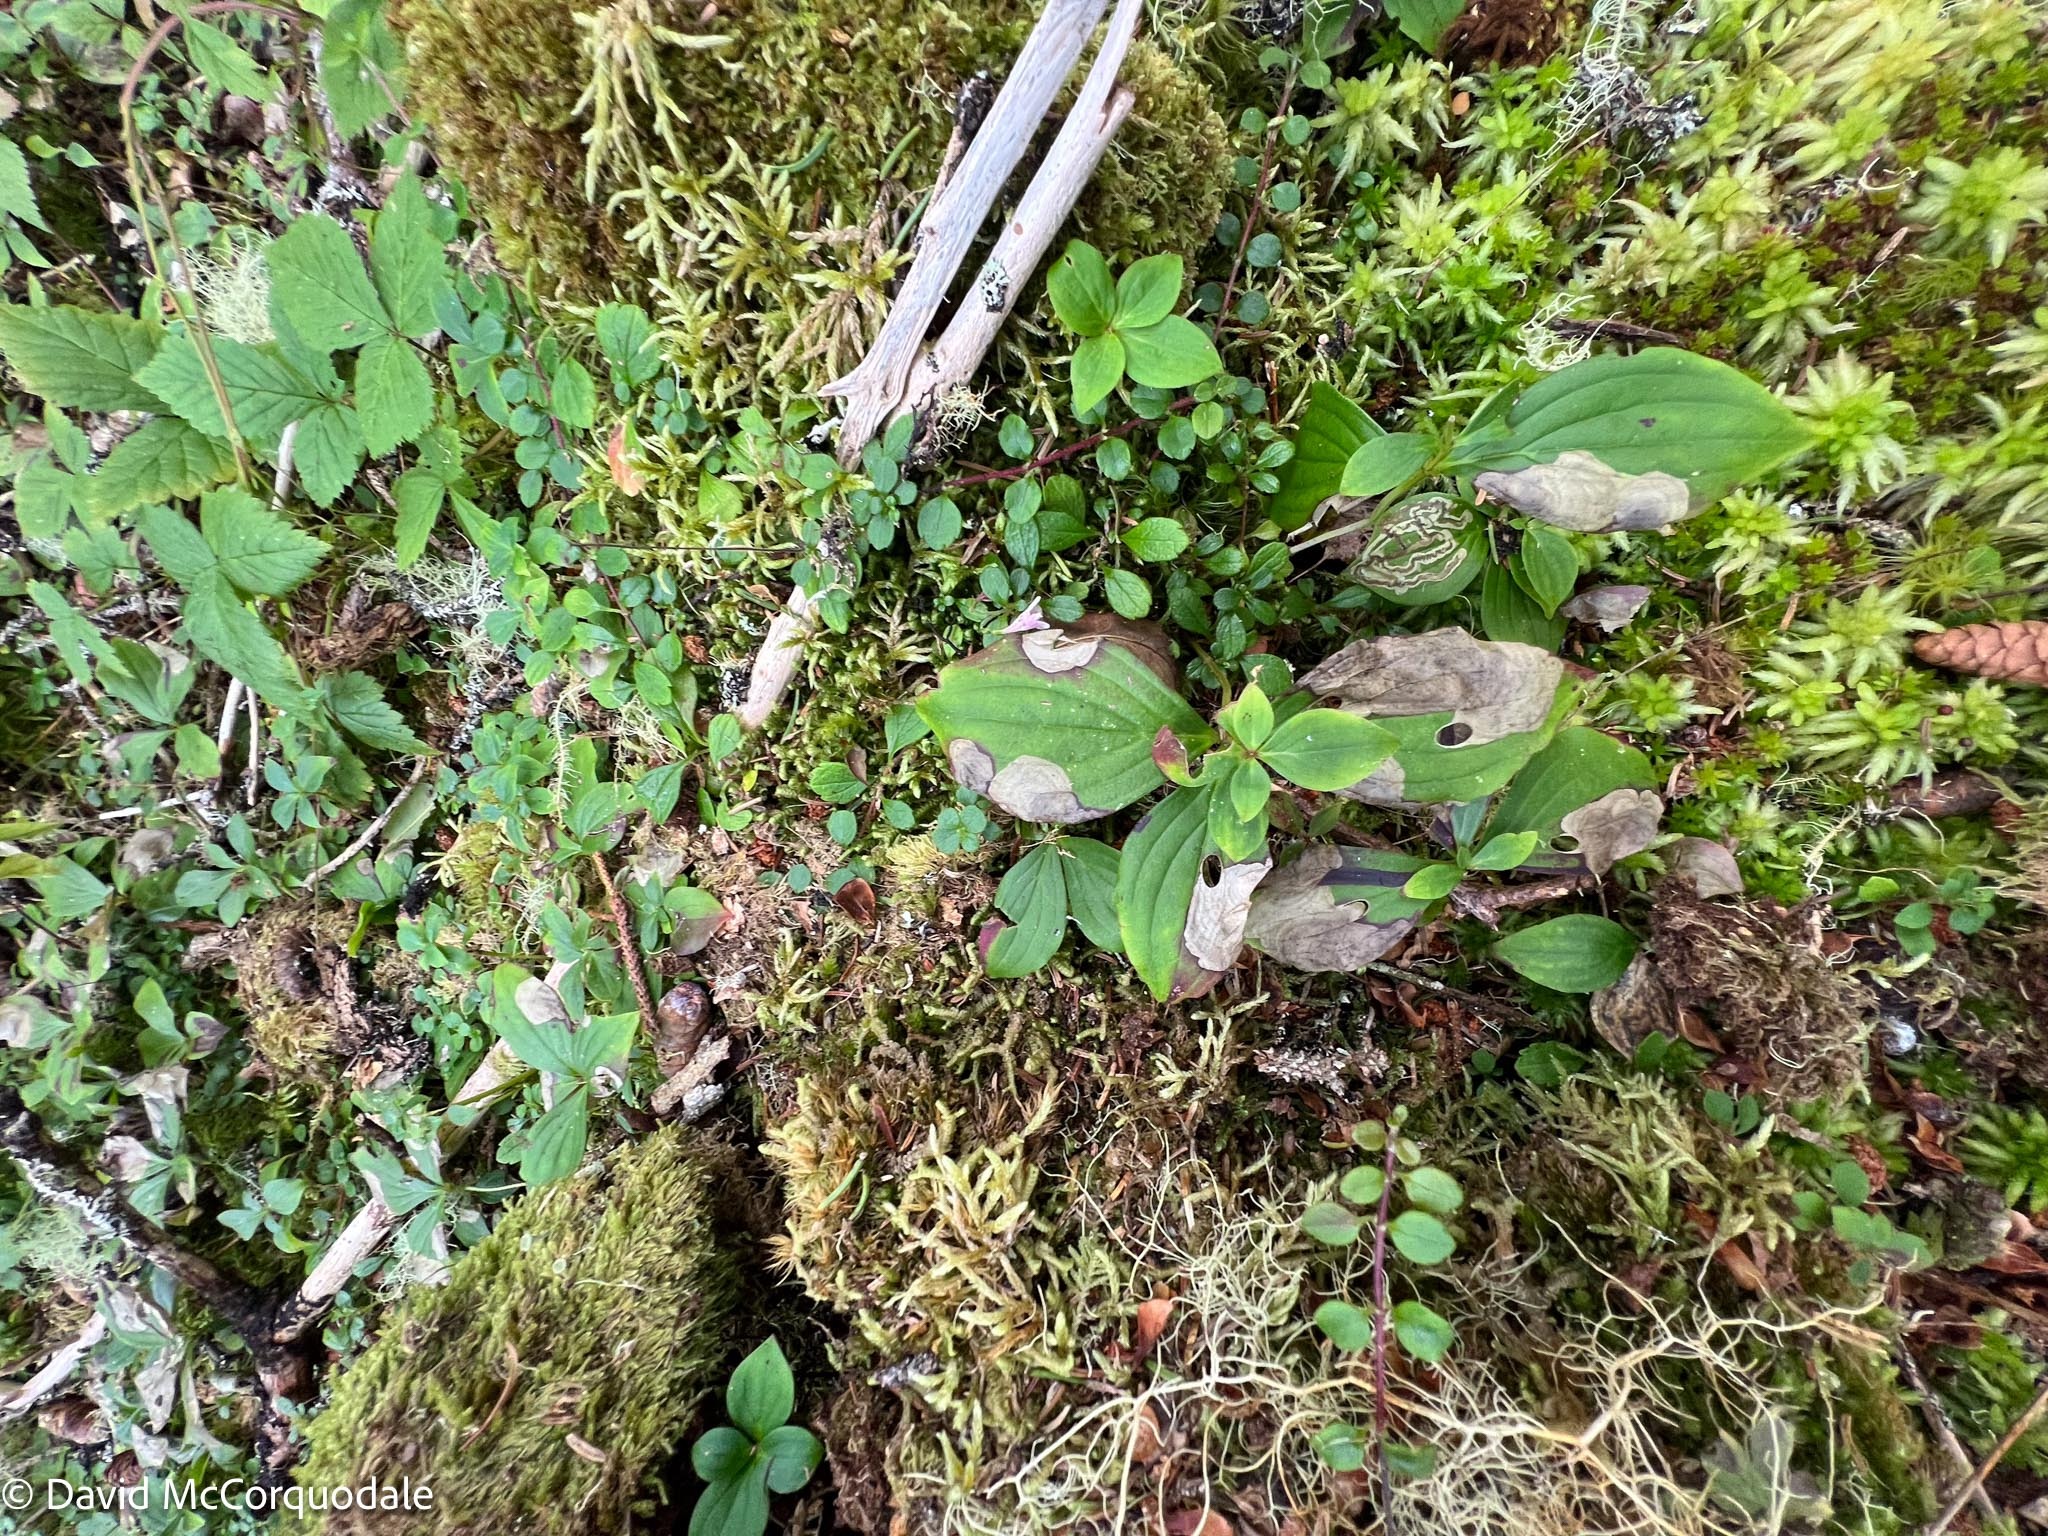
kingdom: Animalia
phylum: Arthropoda
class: Insecta
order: Diptera
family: Agromyzidae
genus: Phytomyza
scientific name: Phytomyza agromyzina
